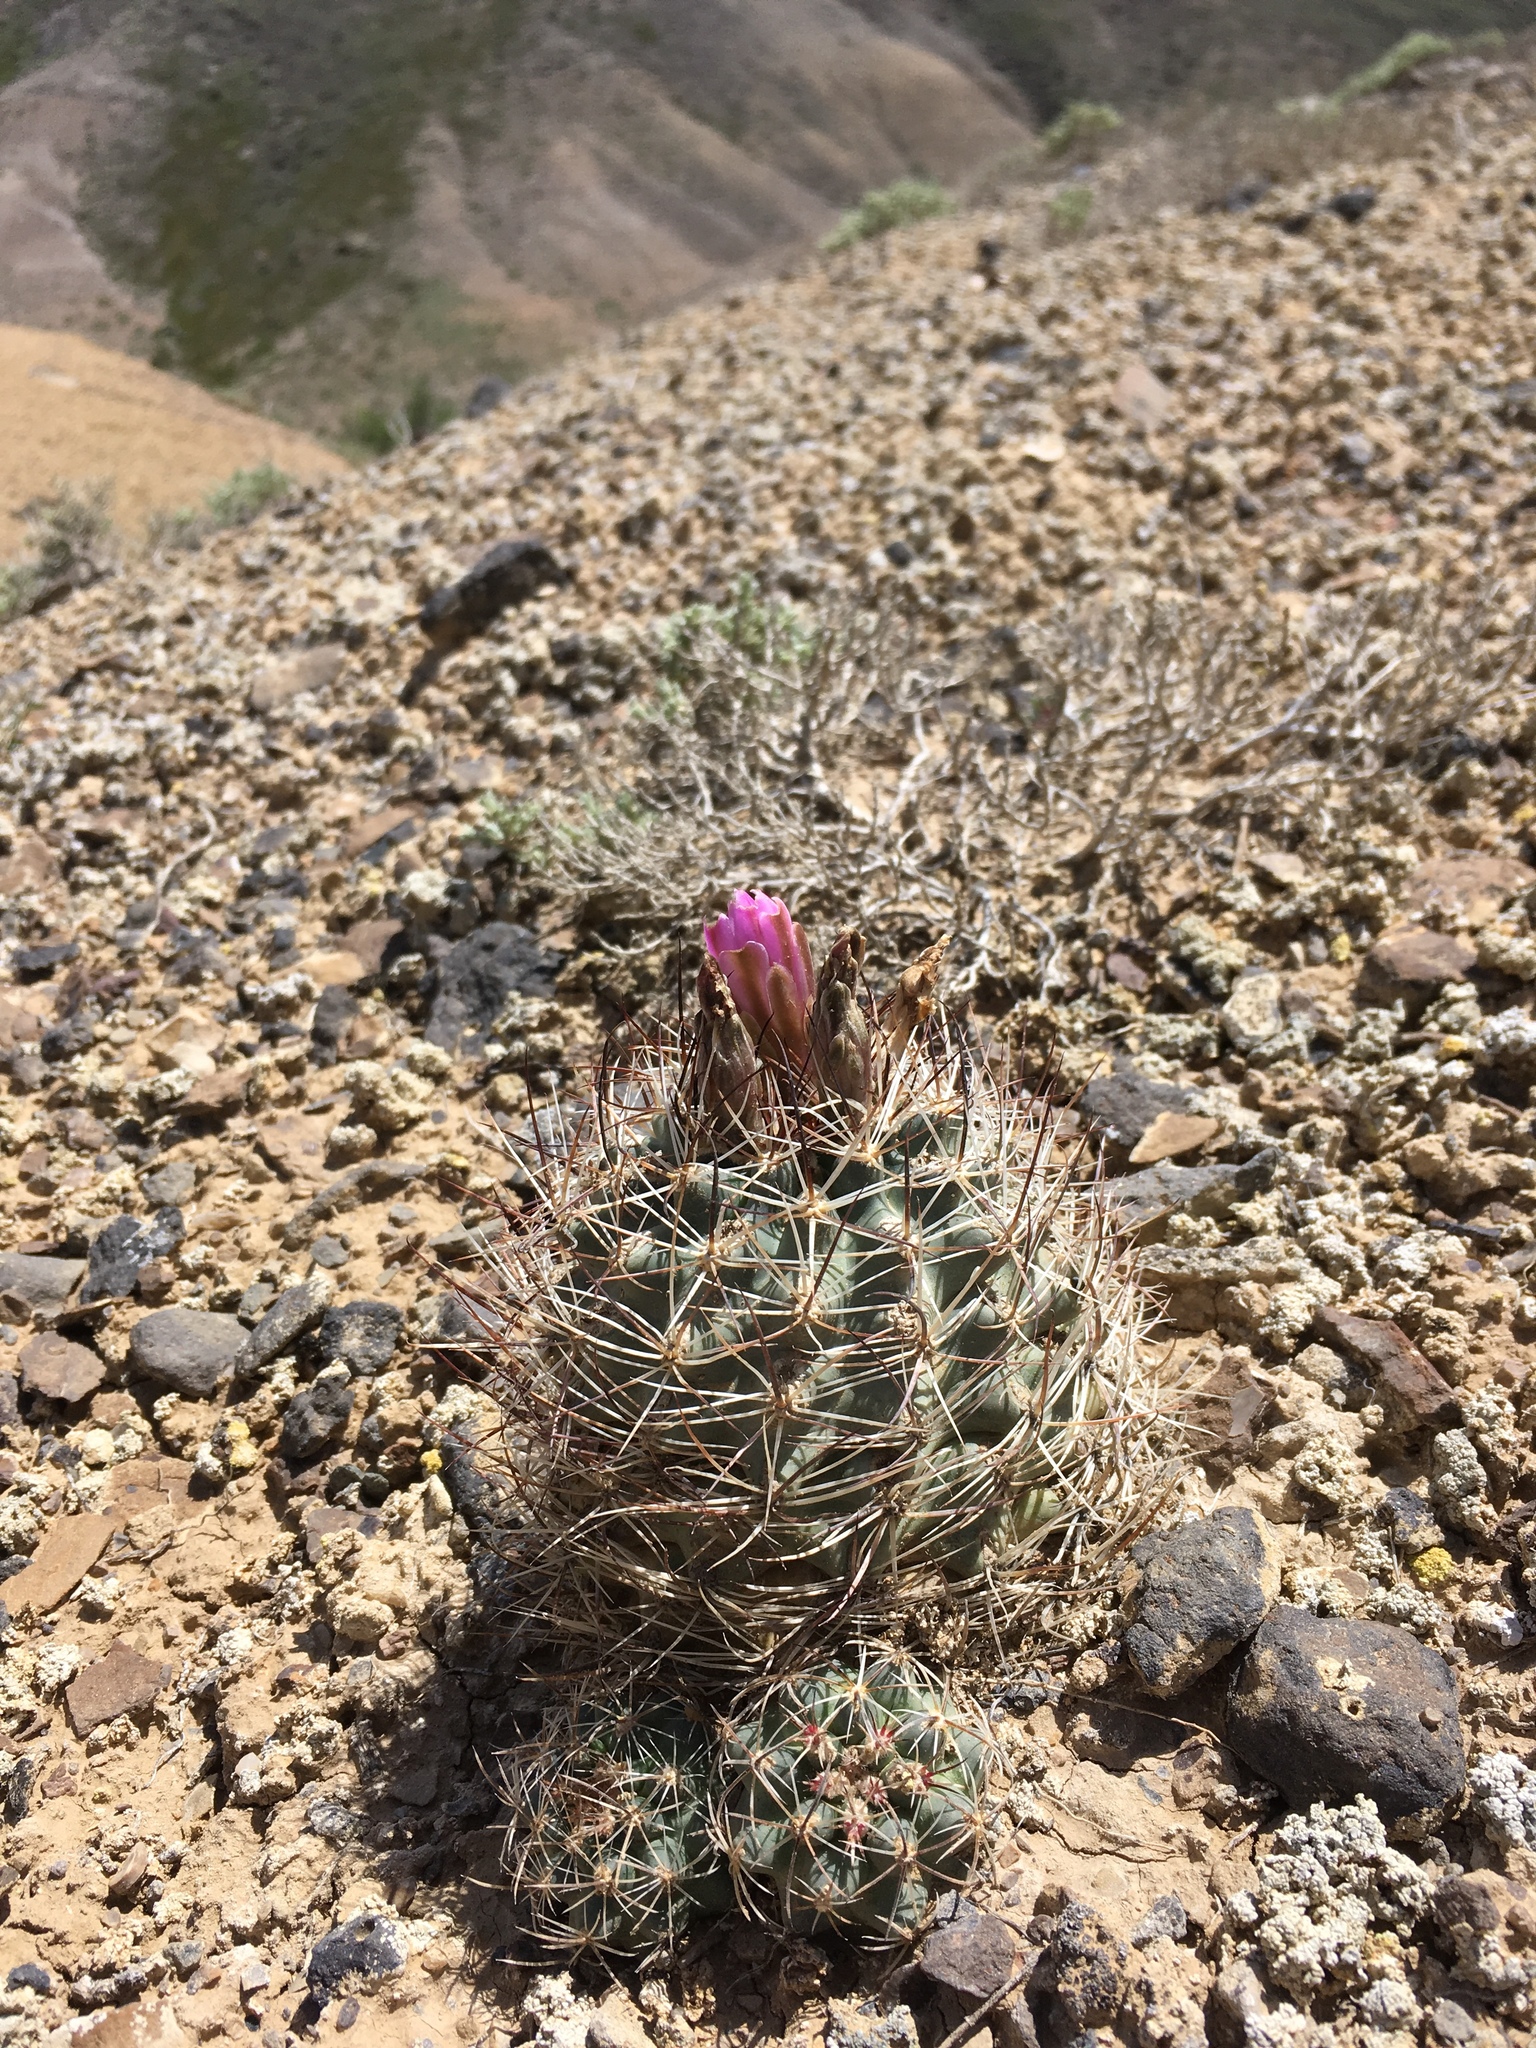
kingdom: Plantae
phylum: Tracheophyta
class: Magnoliopsida
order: Caryophyllales
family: Cactaceae
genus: Sclerocactus
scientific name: Sclerocactus glaucus
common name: Colorado hookless cactus
